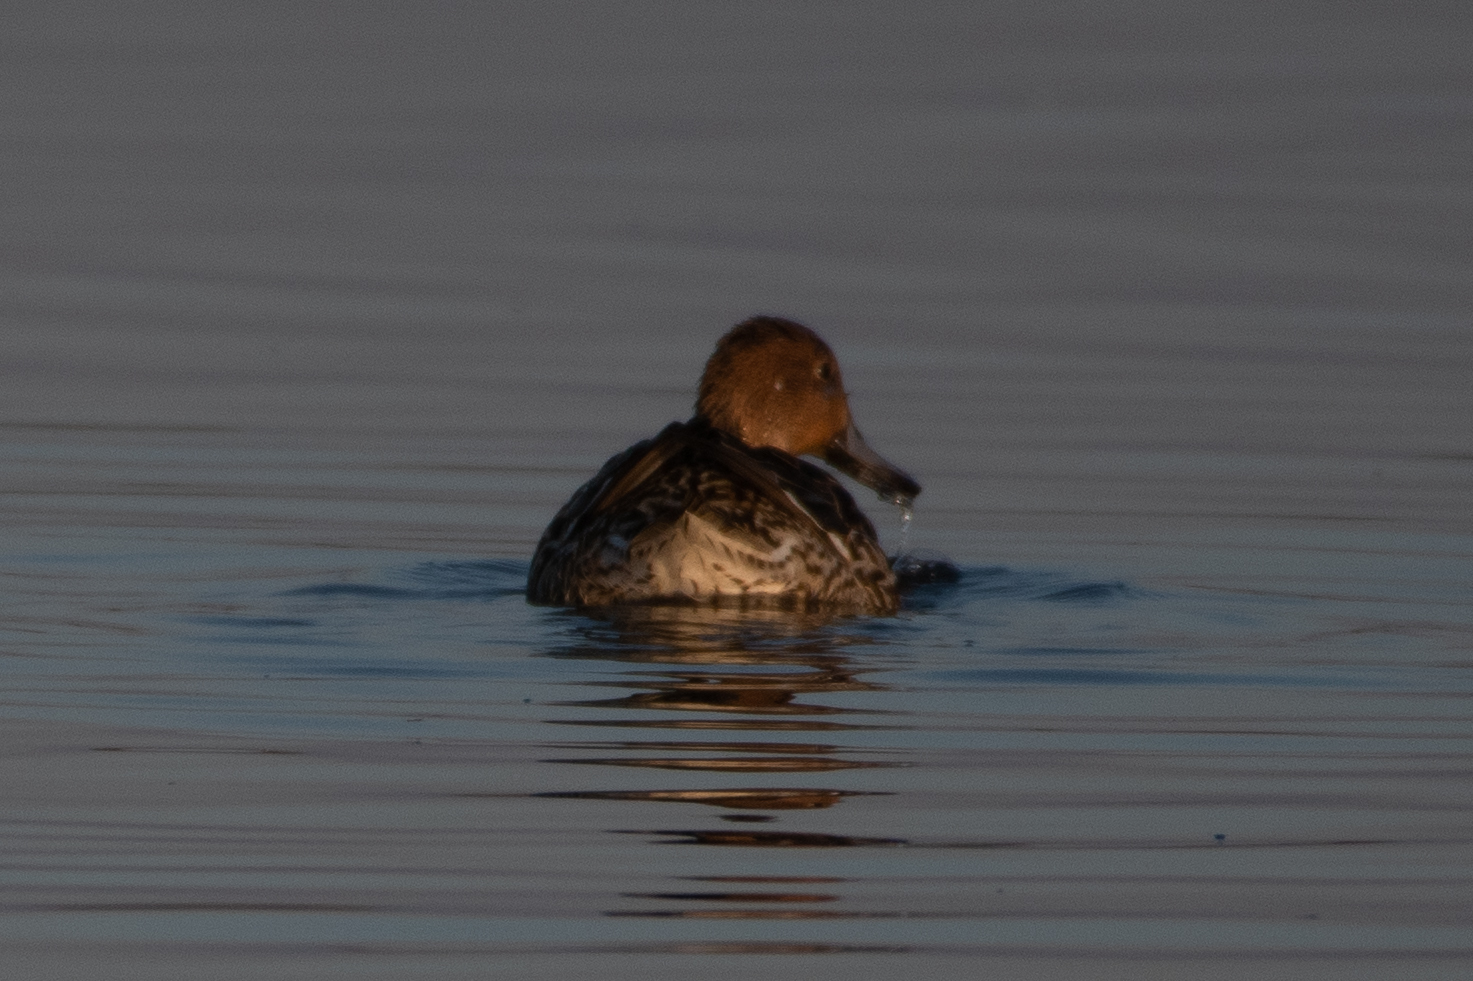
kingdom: Animalia
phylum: Chordata
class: Aves
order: Anseriformes
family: Anatidae
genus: Anas
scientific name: Anas acuta
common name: Northern pintail
